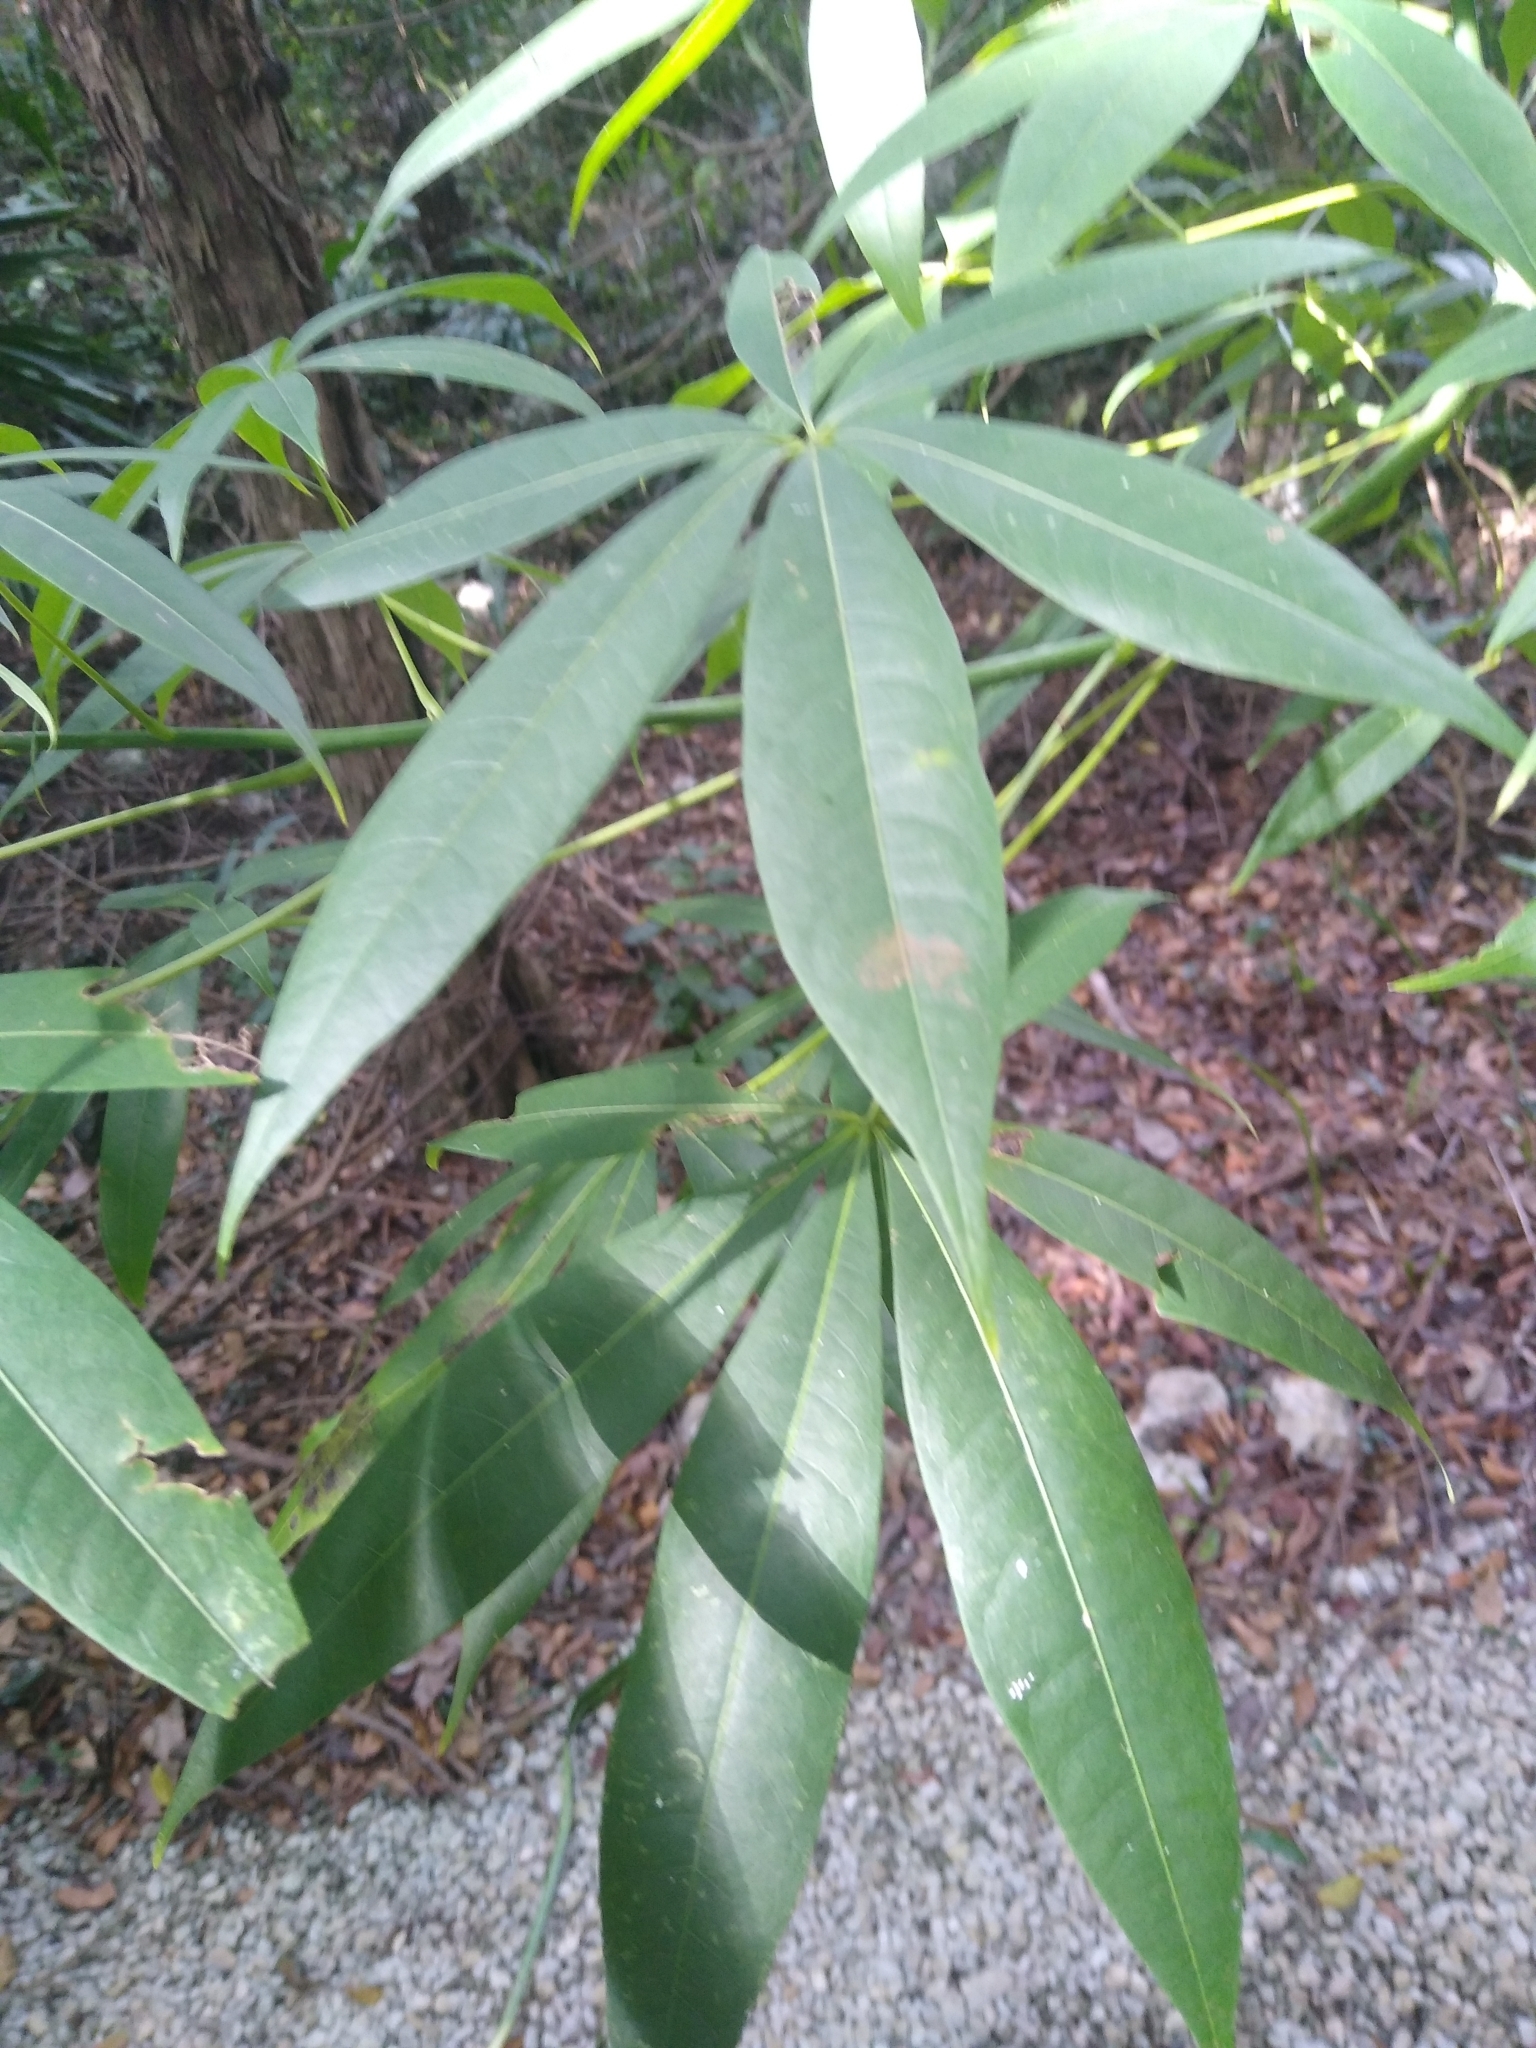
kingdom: Plantae
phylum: Tracheophyta
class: Magnoliopsida
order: Malvales
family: Malvaceae
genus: Ceiba
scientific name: Ceiba pentandra
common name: Kapok
